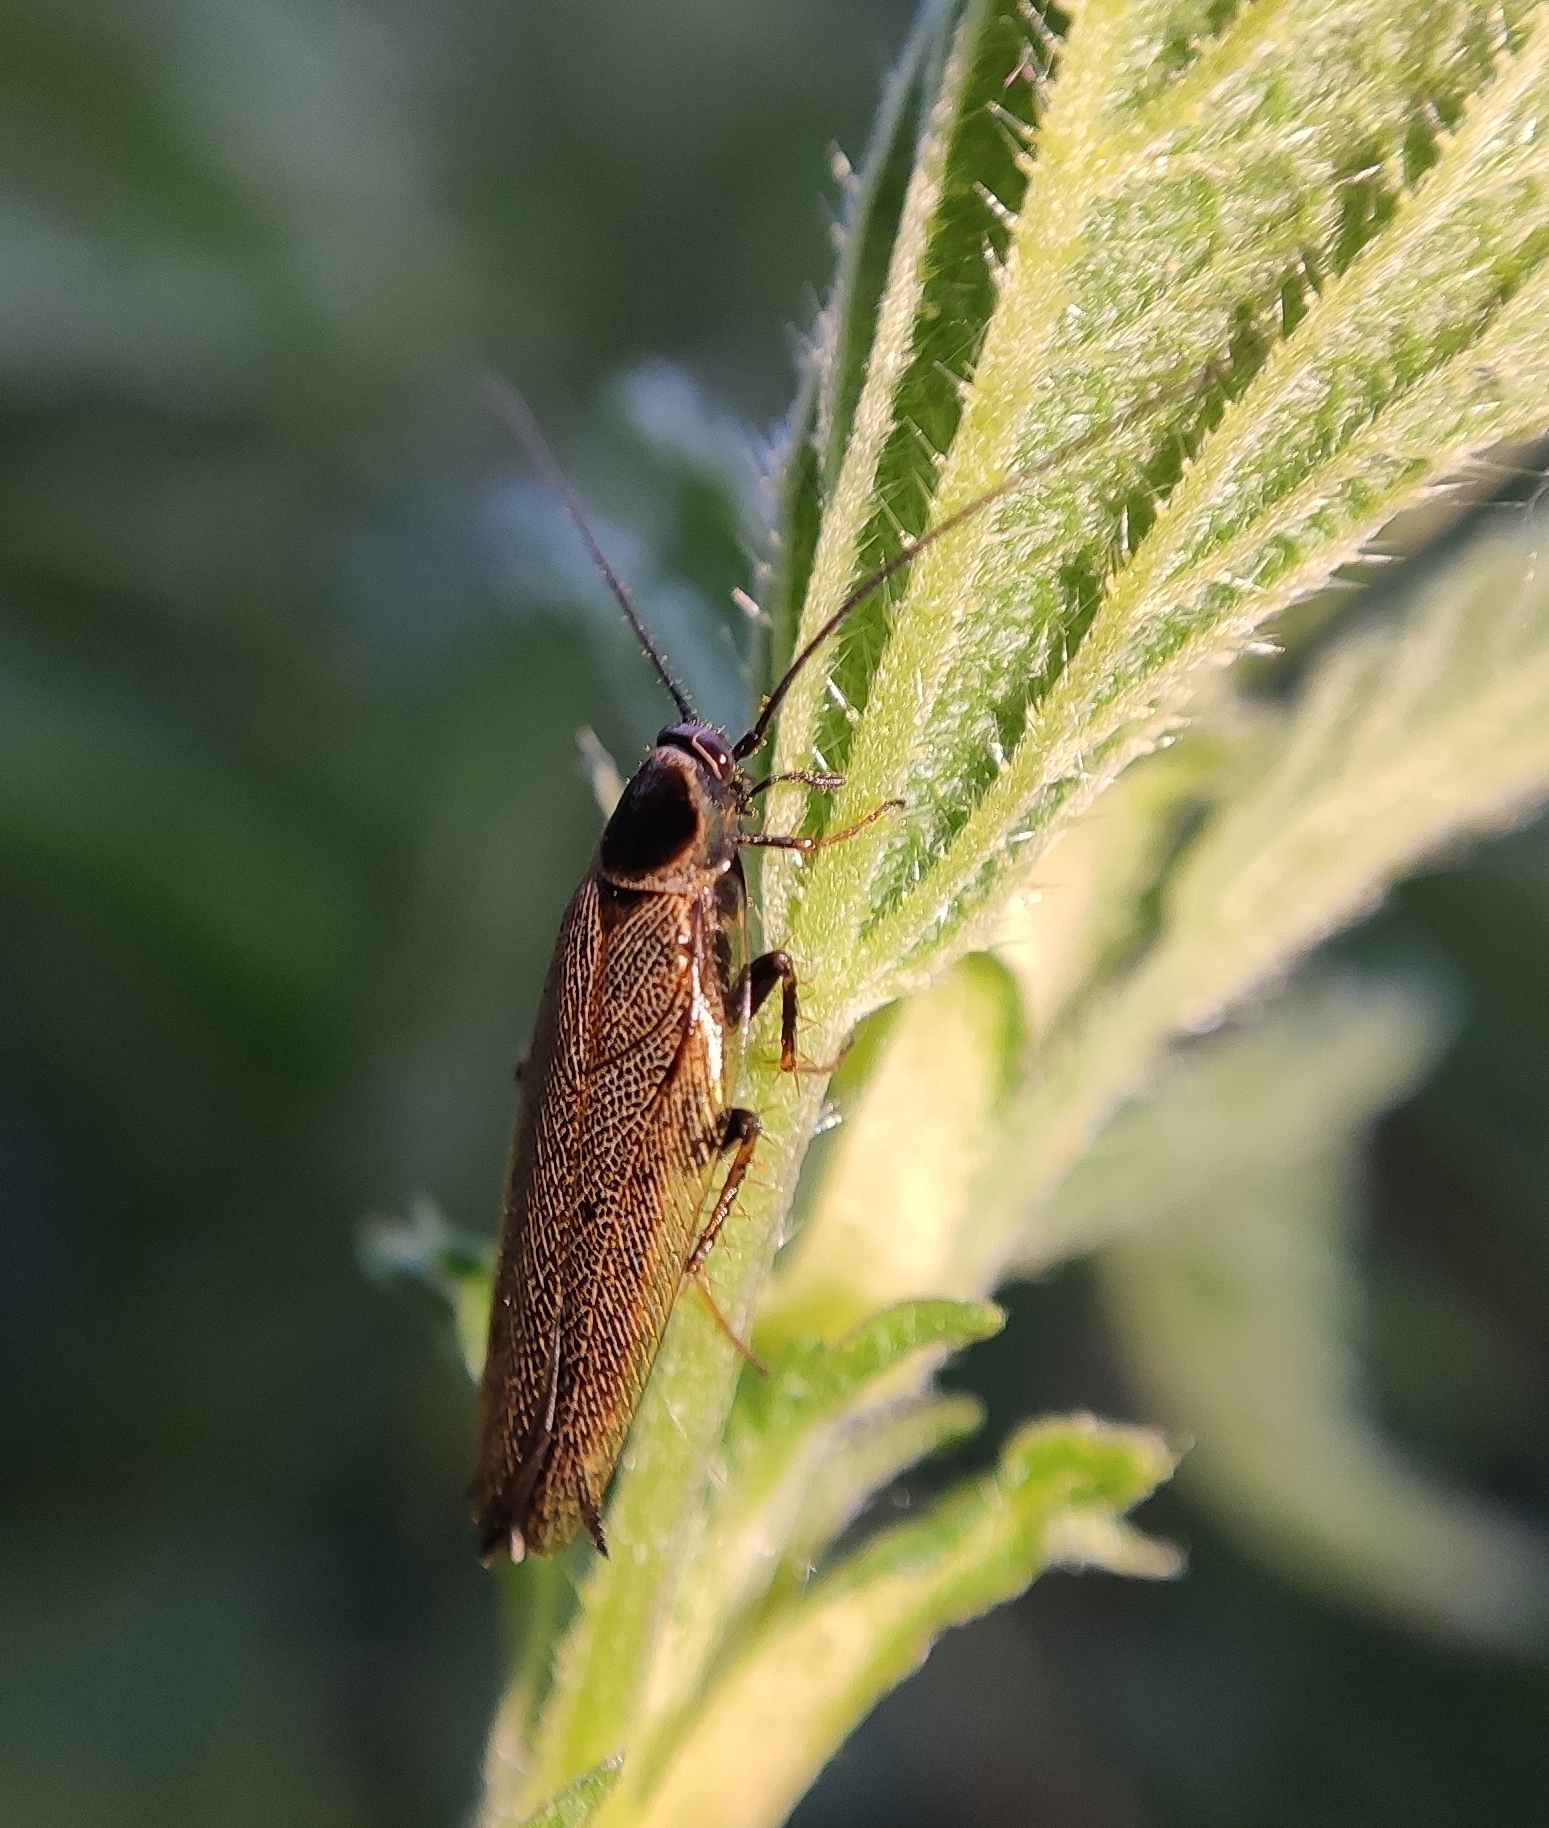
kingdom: Animalia
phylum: Arthropoda
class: Insecta
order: Blattodea
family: Ectobiidae
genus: Ectobius
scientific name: Ectobius lapponicus
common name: Dusky cockroach
